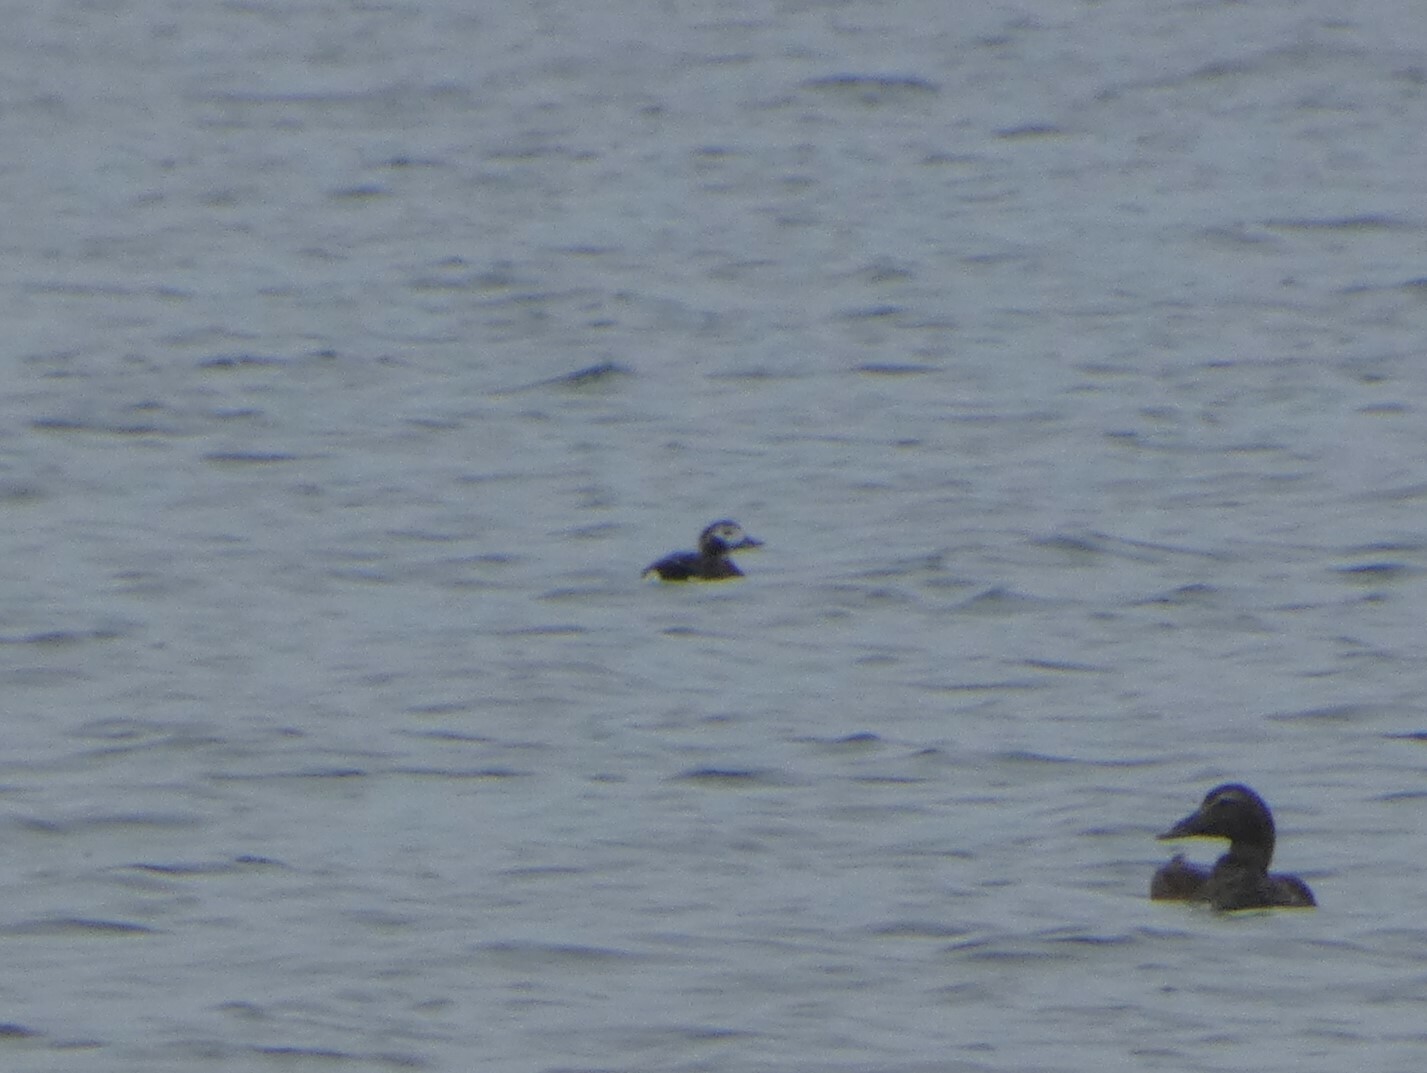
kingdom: Animalia
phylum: Chordata
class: Aves
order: Anseriformes
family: Anatidae
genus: Clangula
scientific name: Clangula hyemalis
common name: Long-tailed duck
